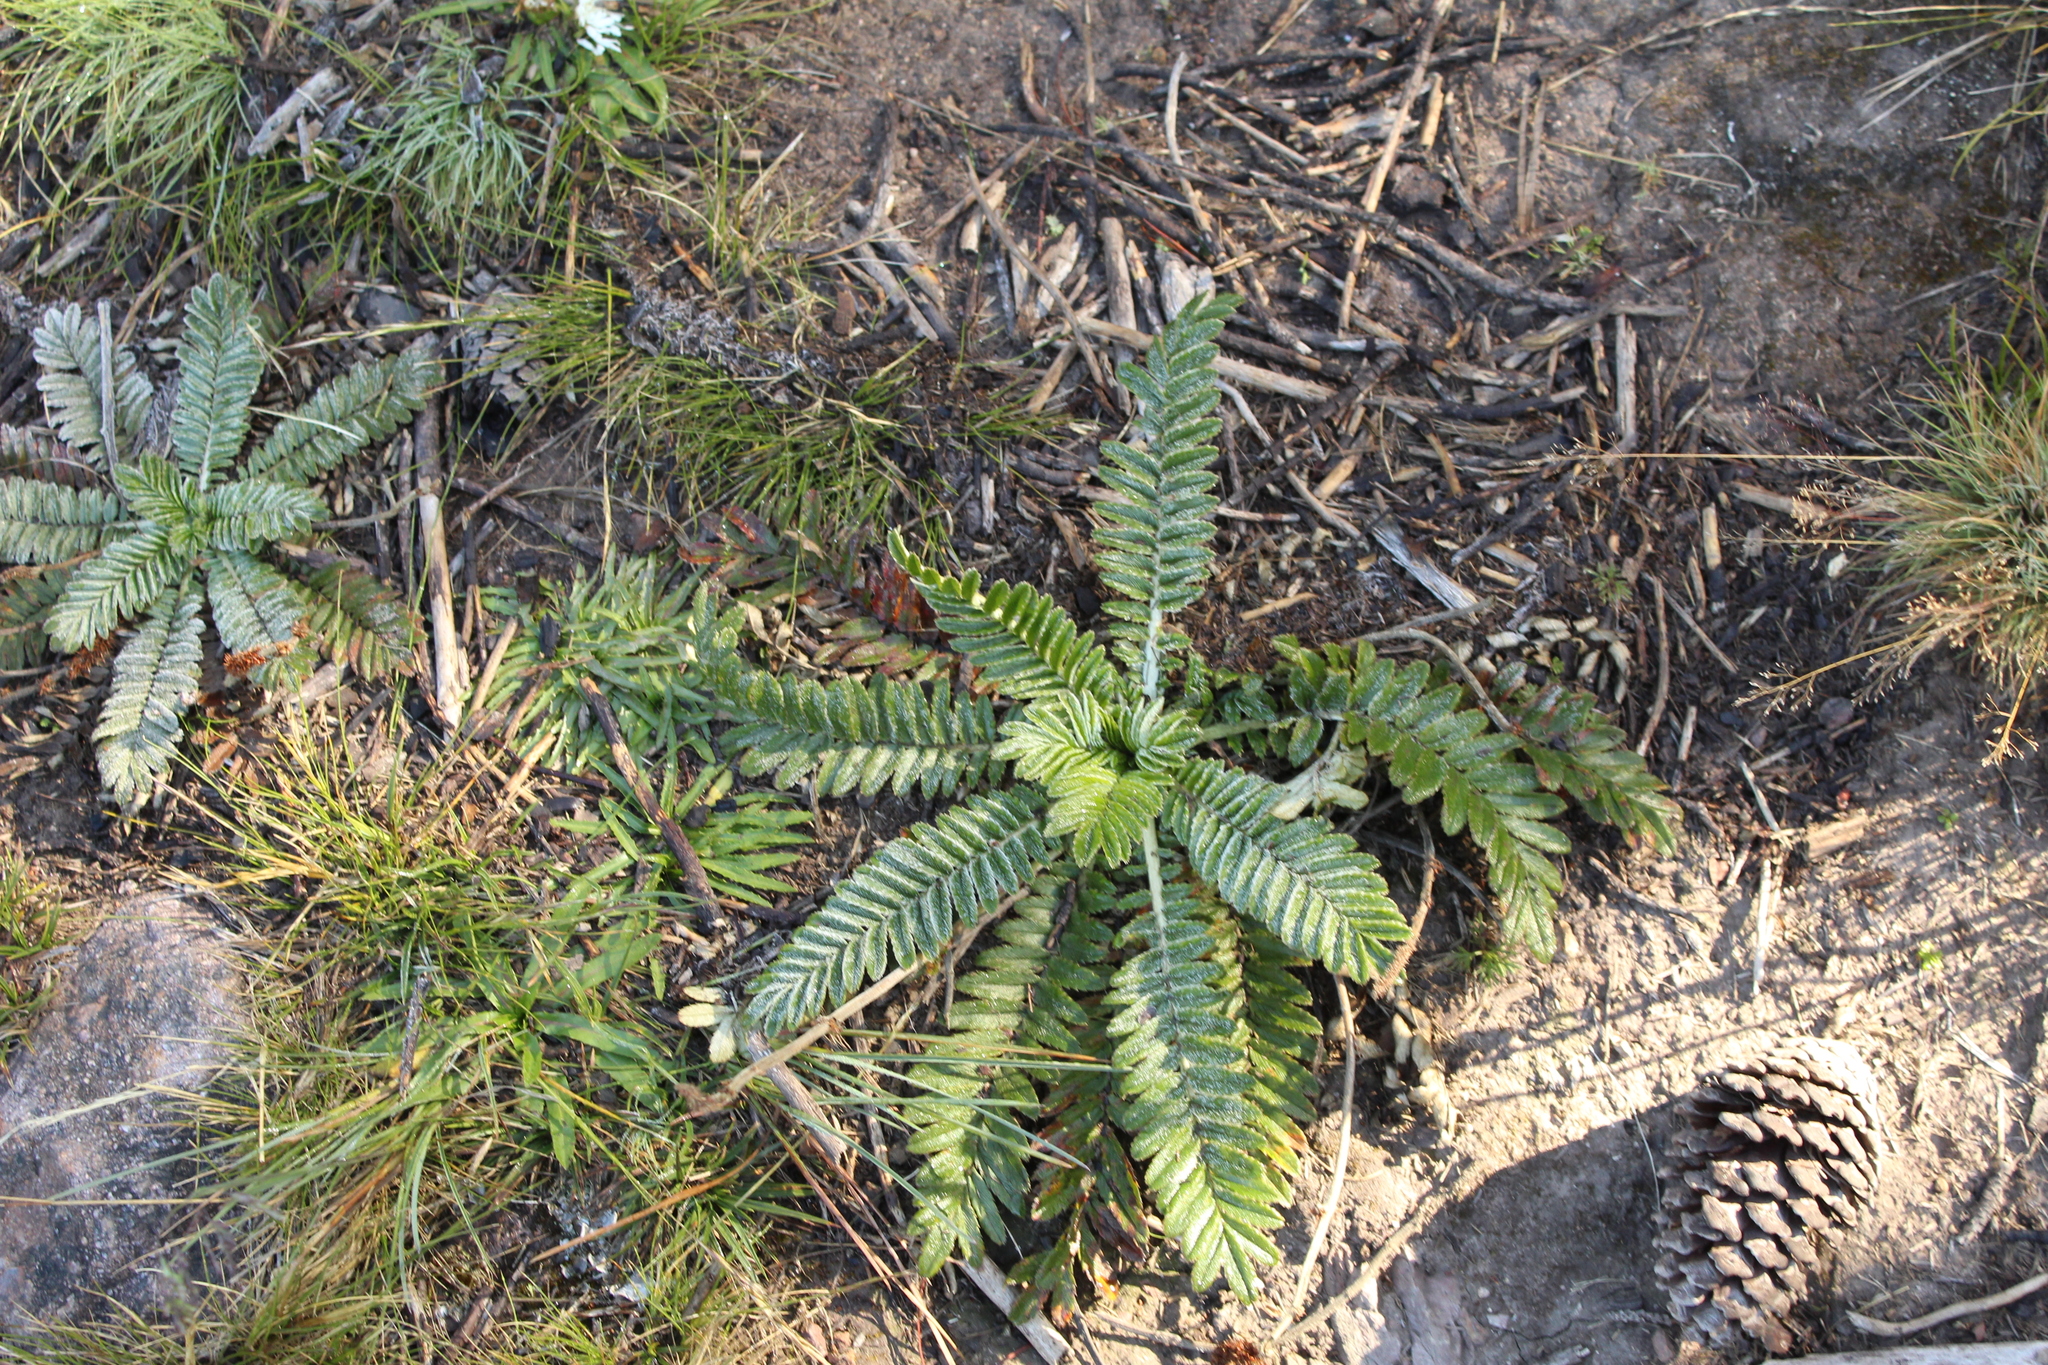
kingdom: Plantae
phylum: Tracheophyta
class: Magnoliopsida
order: Rosales
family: Rosaceae
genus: Acaena
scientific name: Acaena cylindristachya
